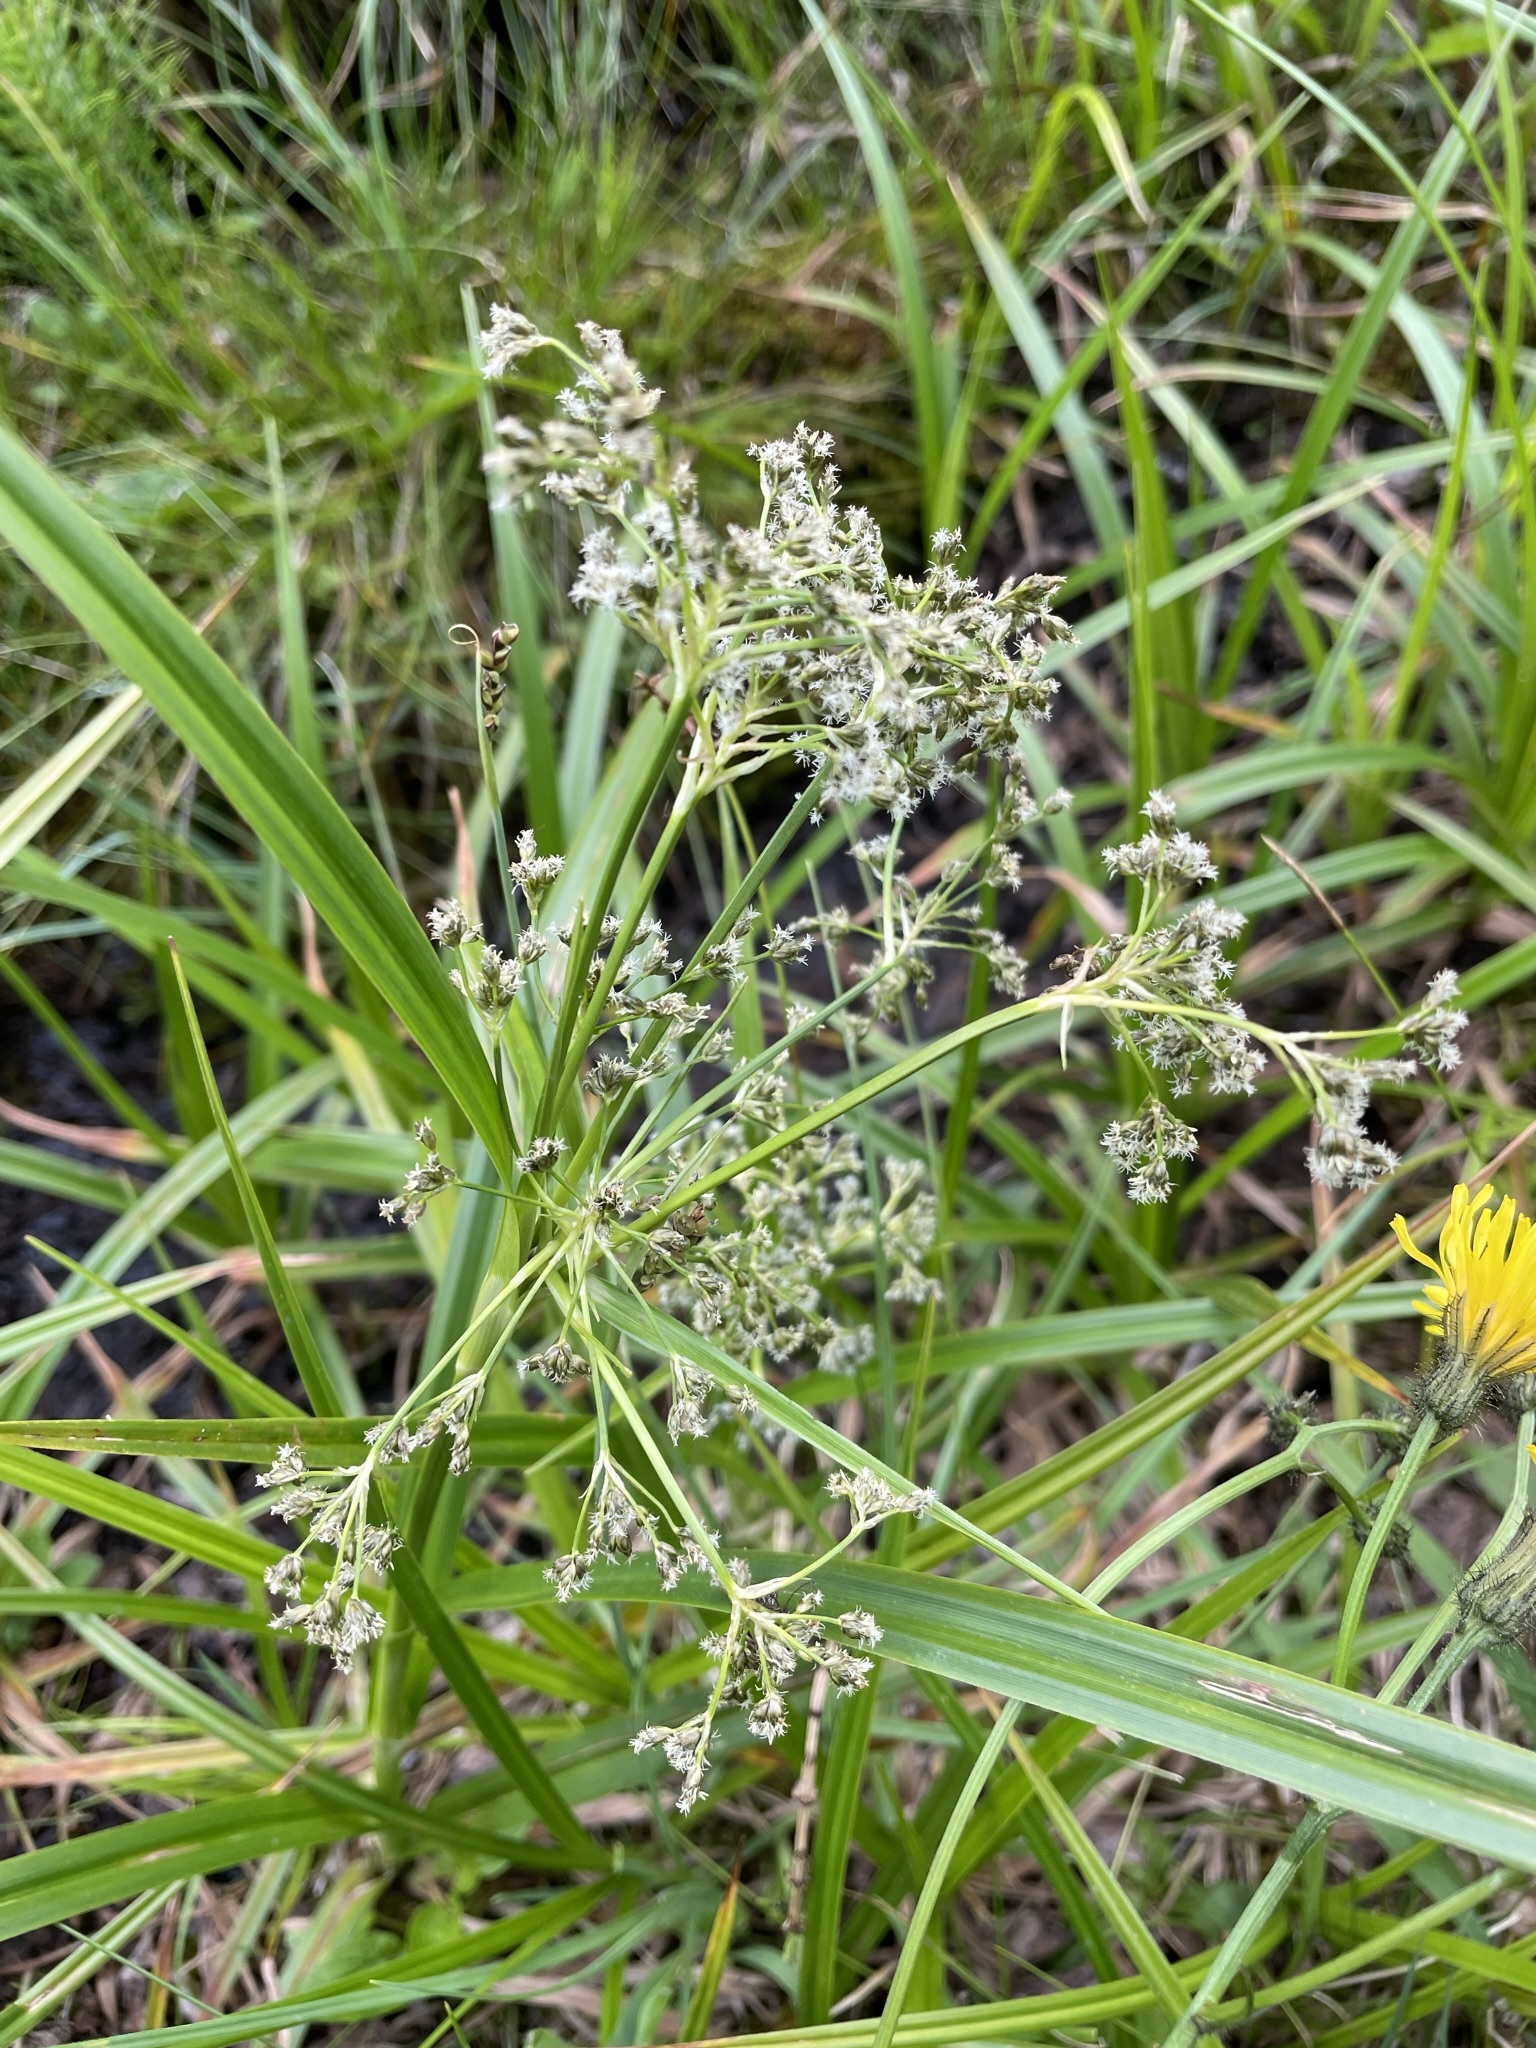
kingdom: Plantae
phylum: Tracheophyta
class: Liliopsida
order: Poales
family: Cyperaceae
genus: Scirpus
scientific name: Scirpus sylvaticus
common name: Wood club-rush
